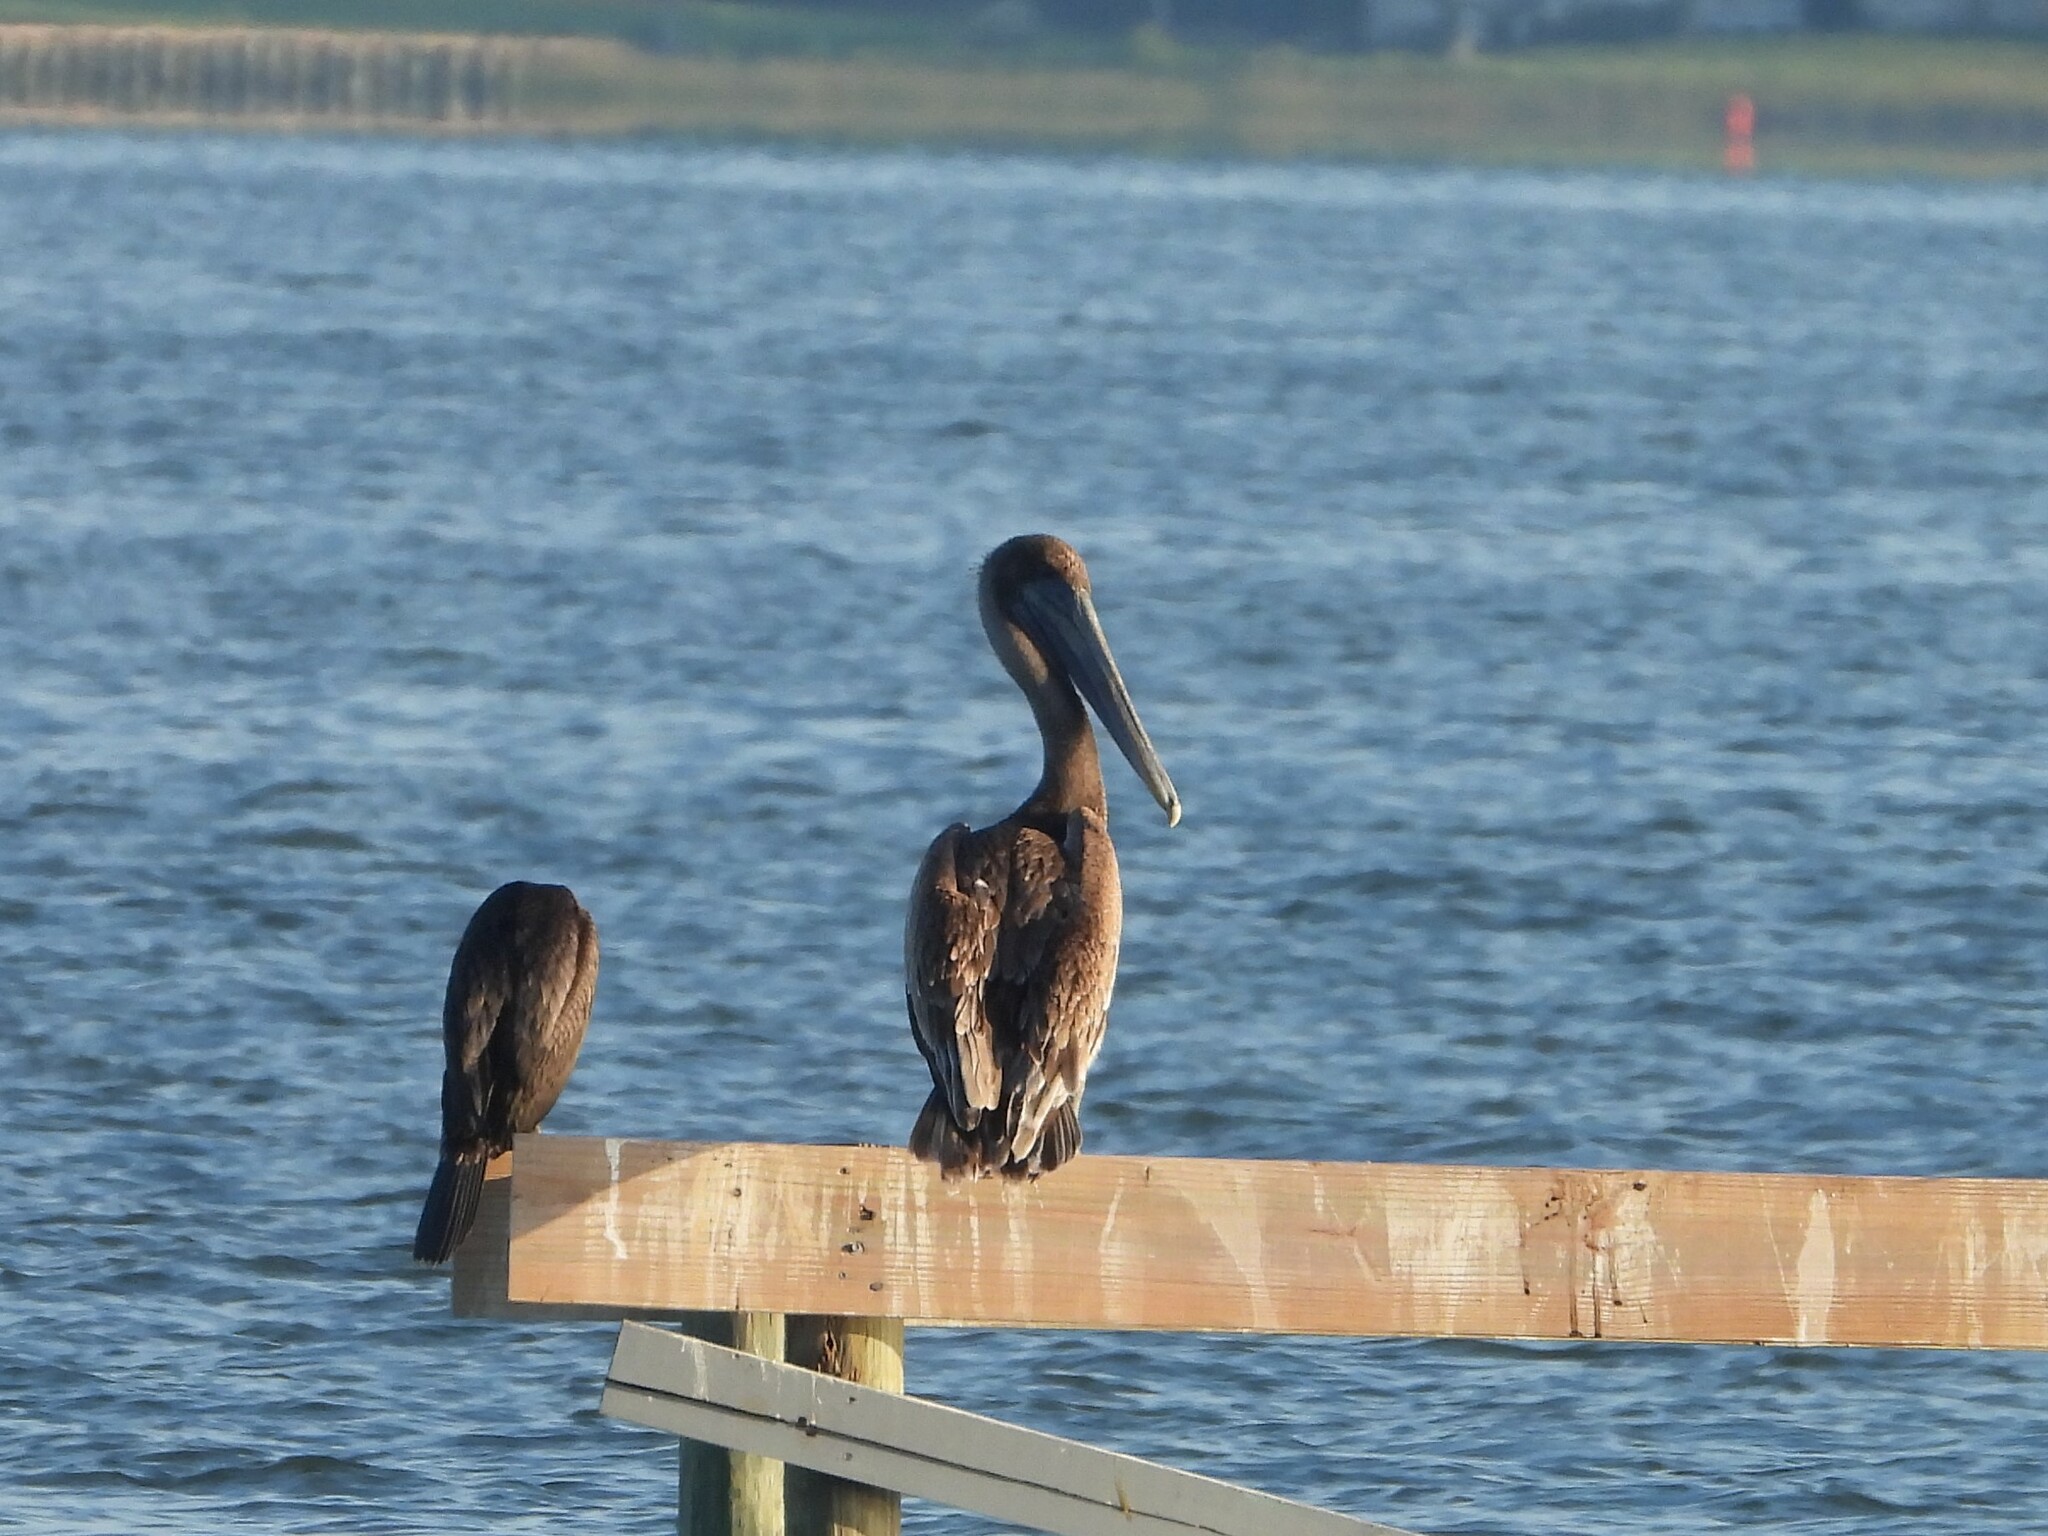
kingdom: Animalia
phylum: Chordata
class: Aves
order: Pelecaniformes
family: Pelecanidae
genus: Pelecanus
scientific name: Pelecanus occidentalis
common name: Brown pelican
